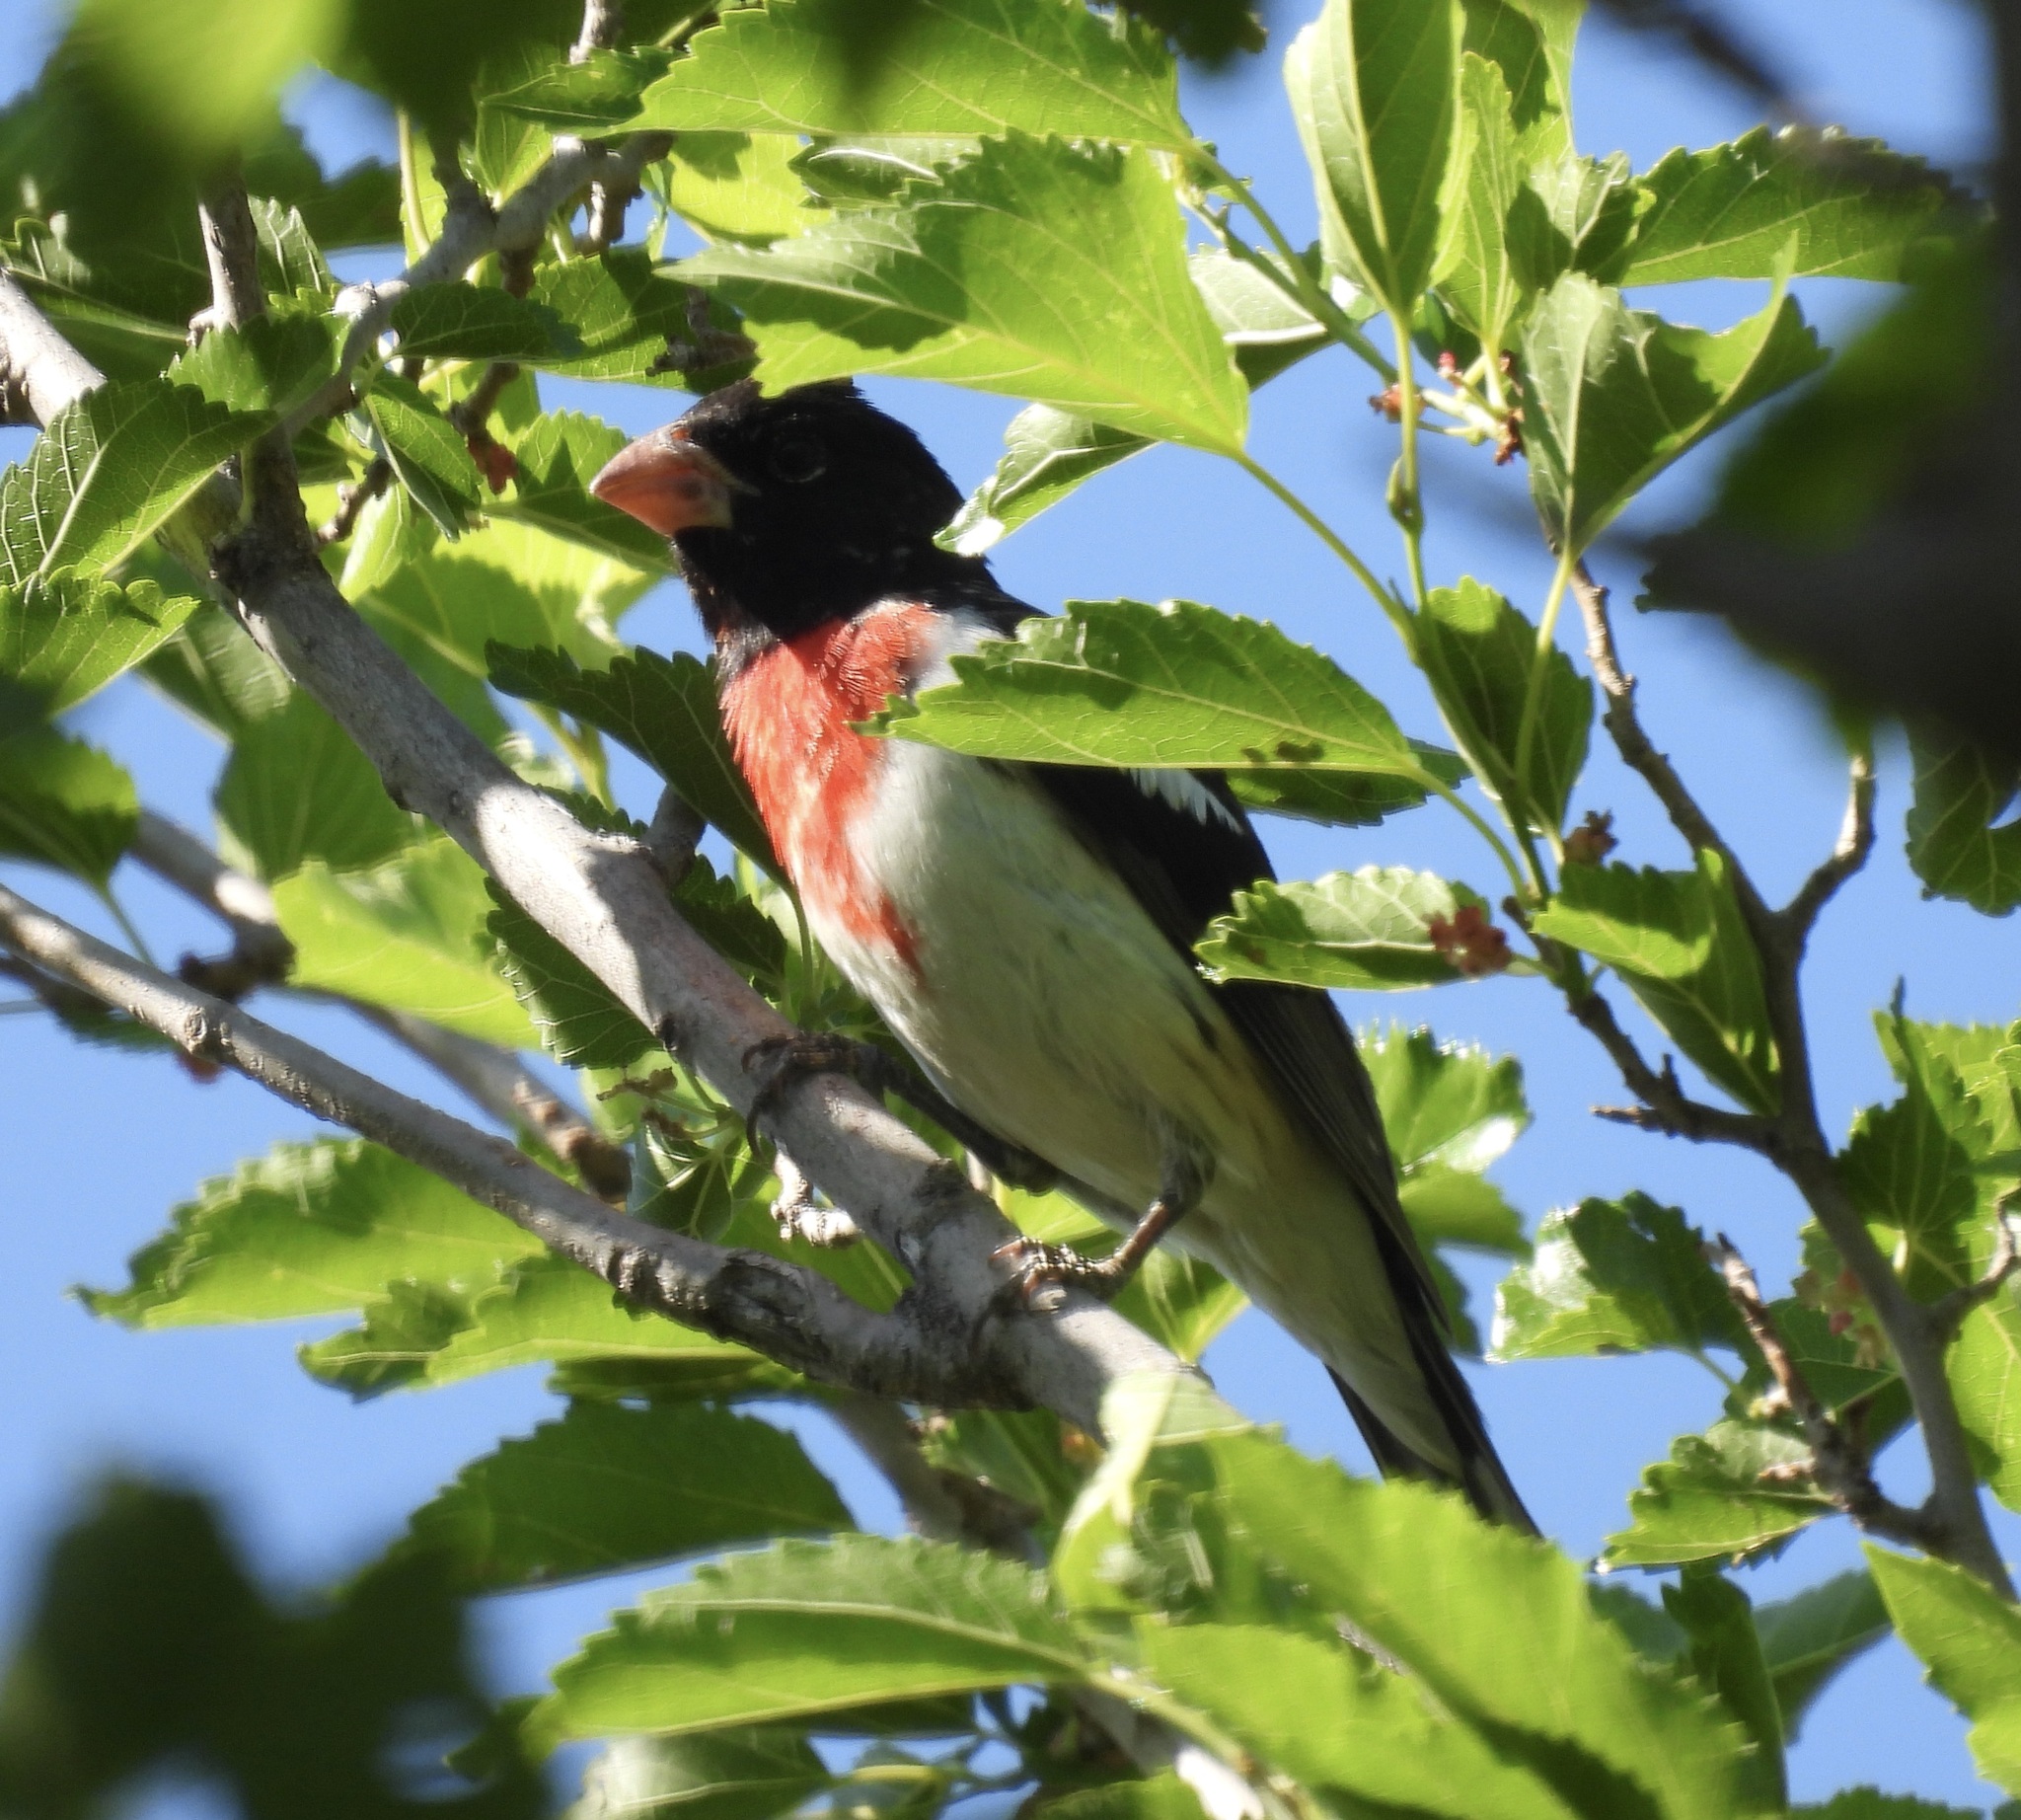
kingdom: Animalia
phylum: Chordata
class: Aves
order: Passeriformes
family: Cardinalidae
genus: Pheucticus
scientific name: Pheucticus ludovicianus
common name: Rose-breasted grosbeak
